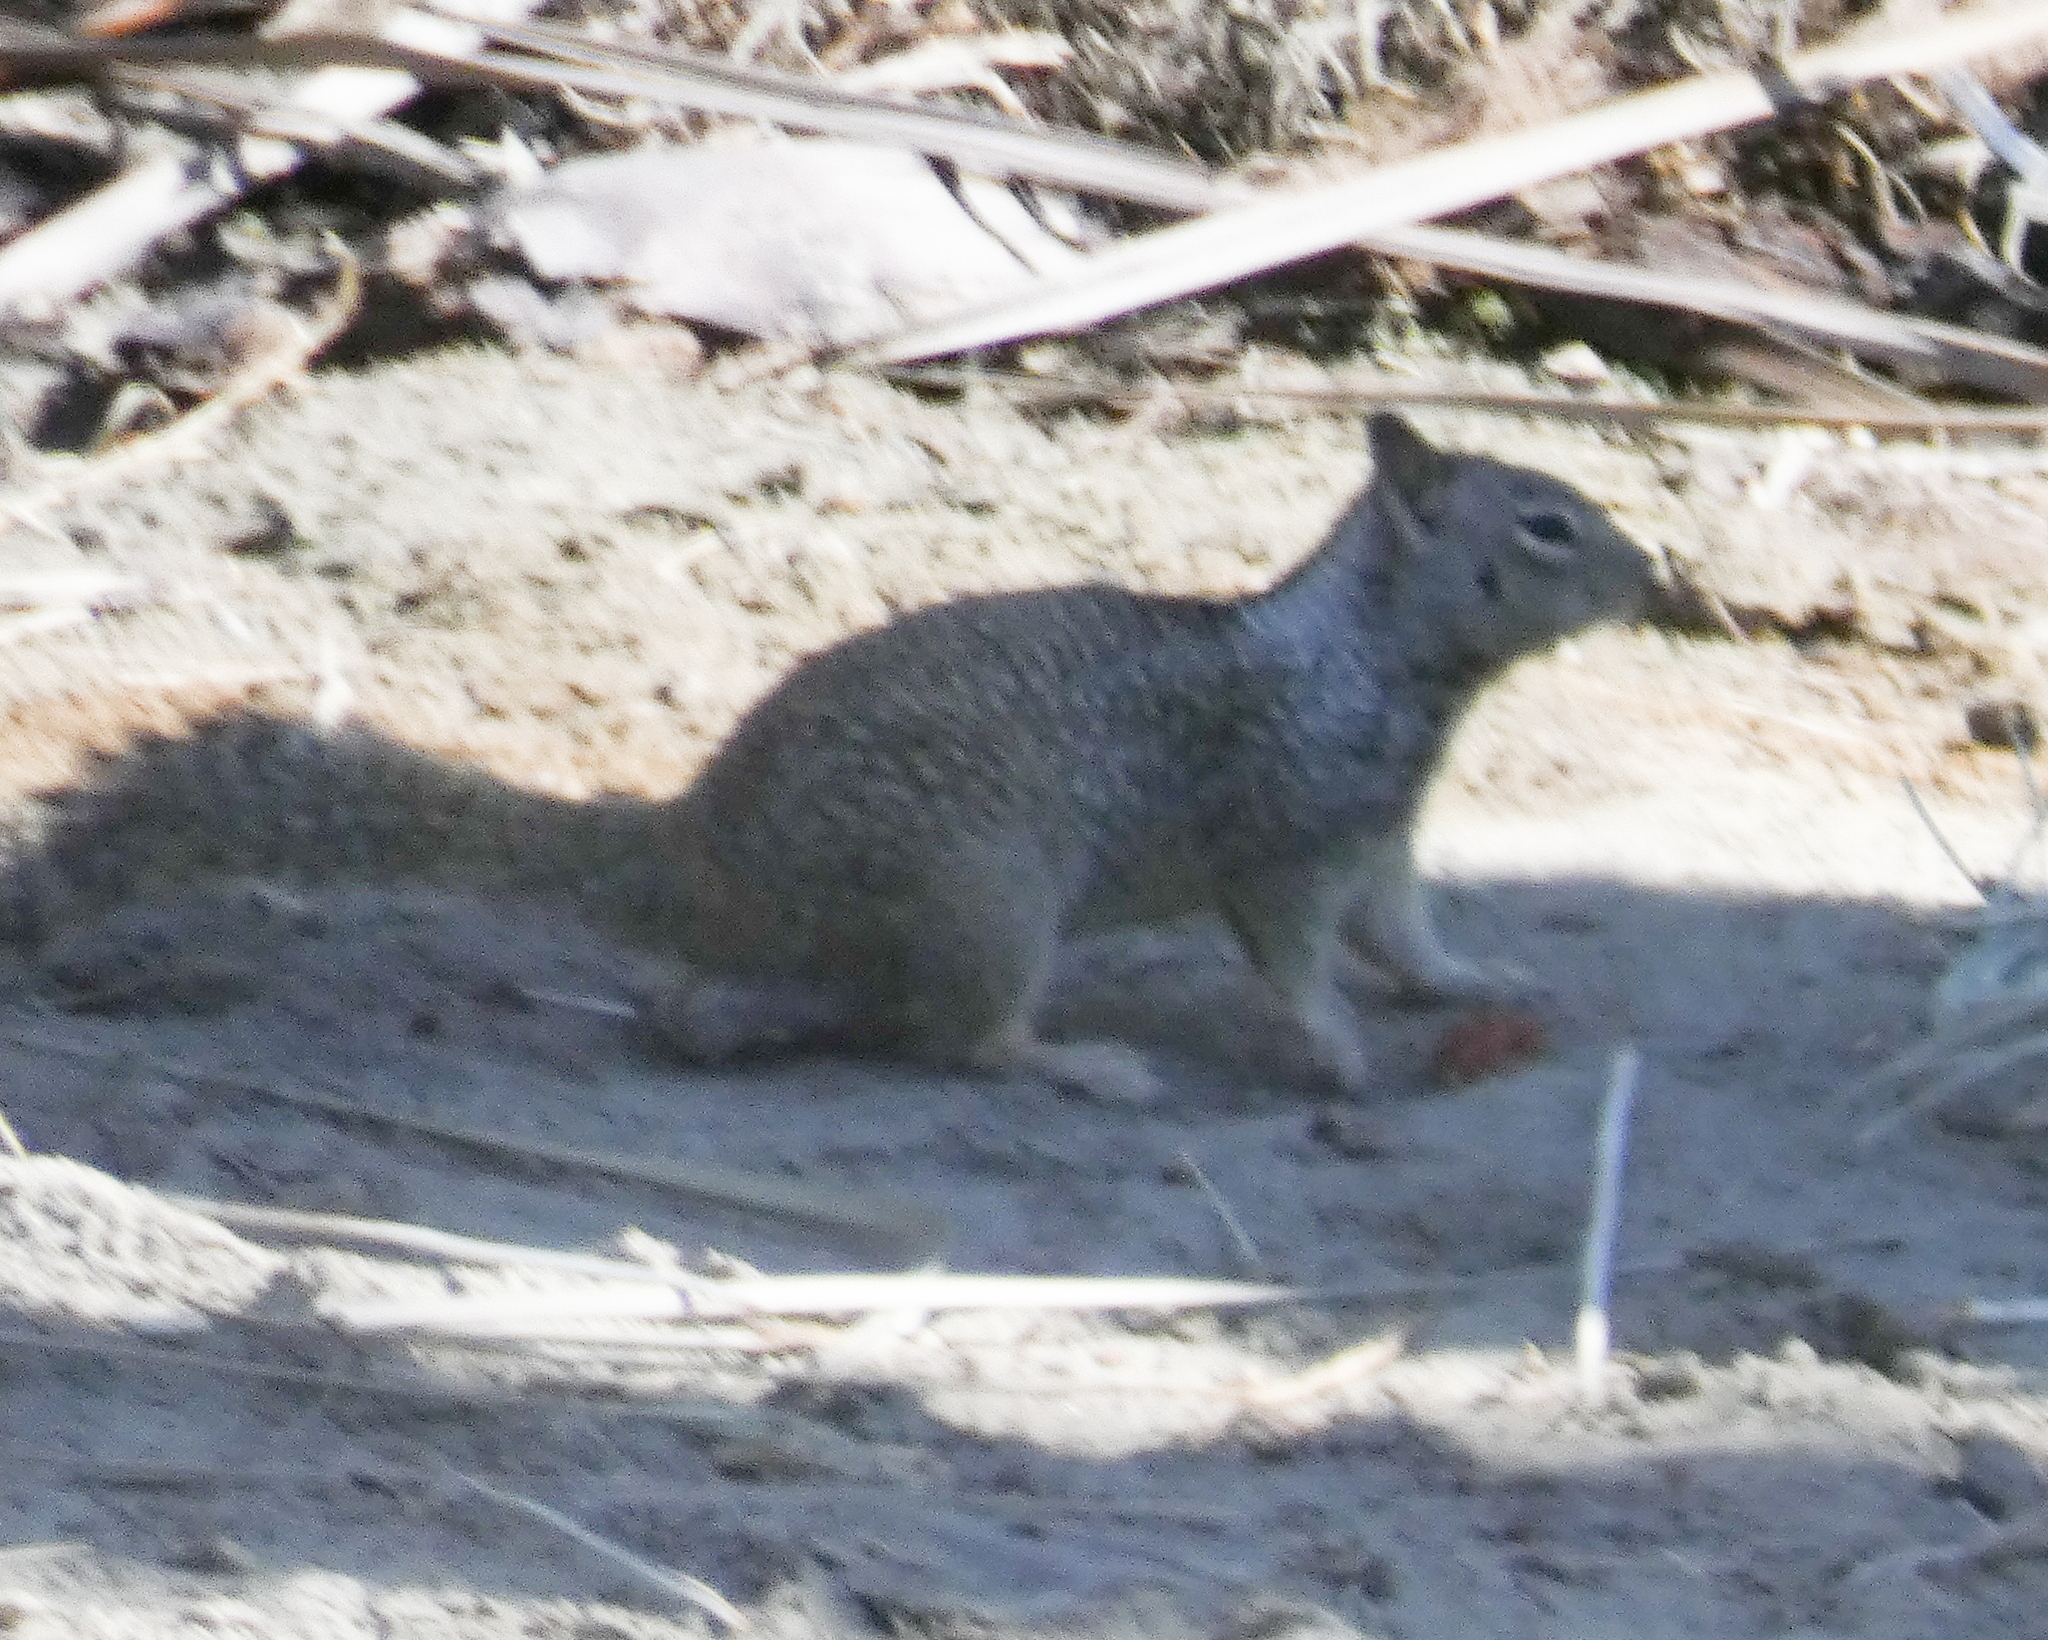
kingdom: Animalia
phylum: Chordata
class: Mammalia
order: Rodentia
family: Sciuridae
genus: Otospermophilus
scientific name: Otospermophilus beecheyi
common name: California ground squirrel
